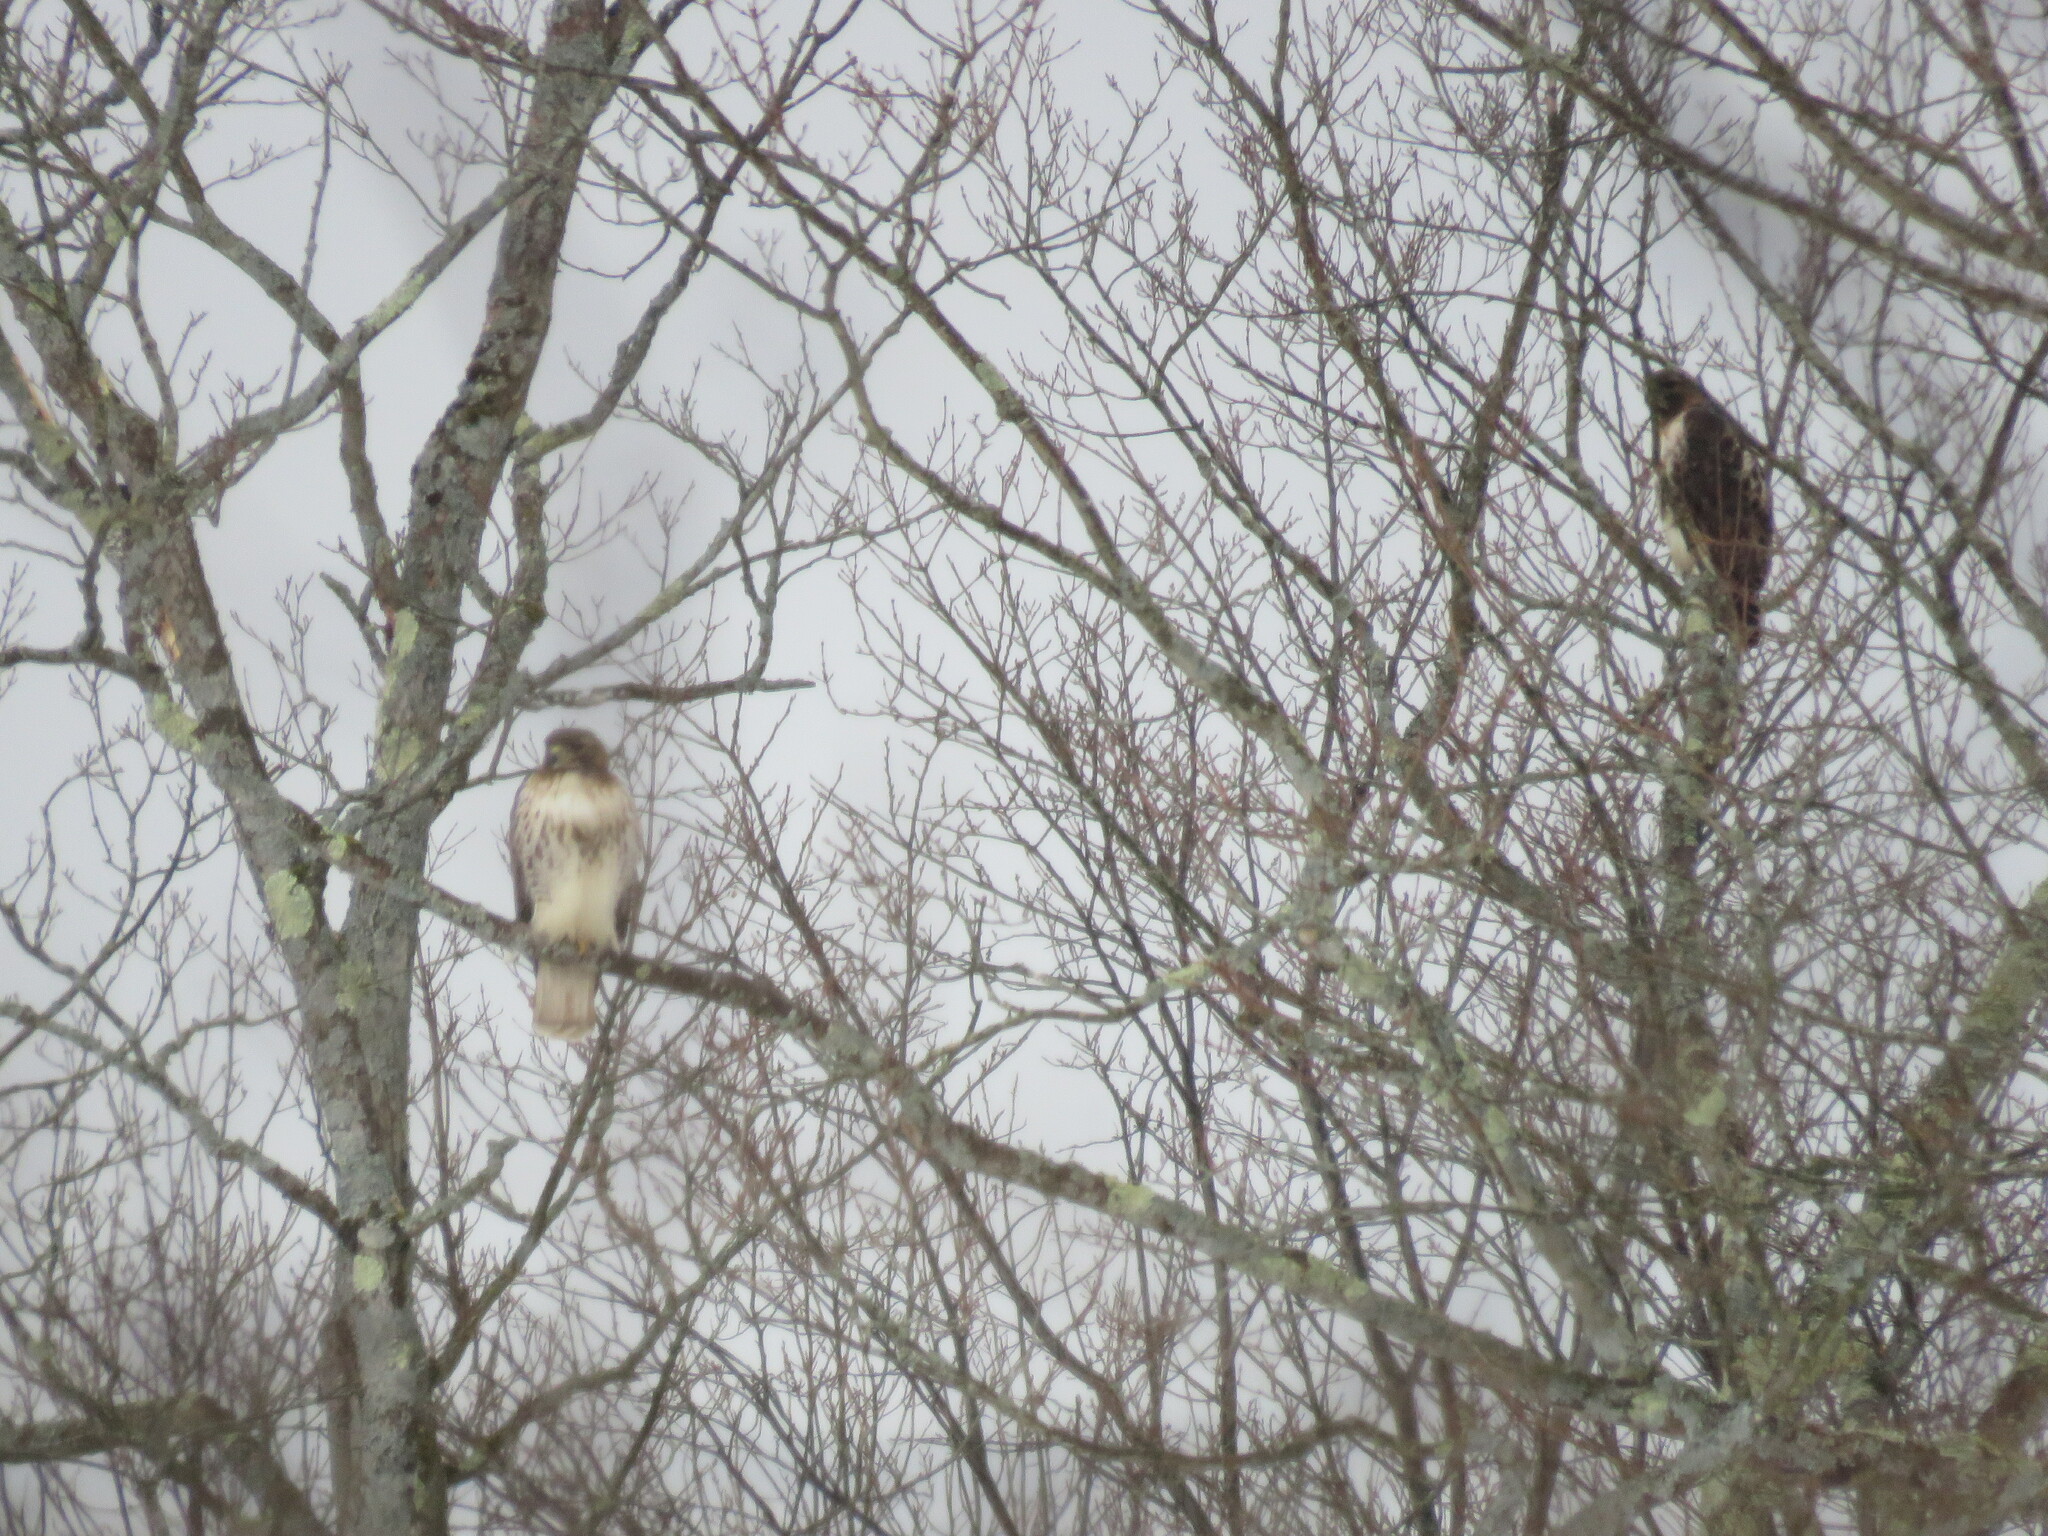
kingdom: Animalia
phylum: Chordata
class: Aves
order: Accipitriformes
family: Accipitridae
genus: Buteo
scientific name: Buteo jamaicensis
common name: Red-tailed hawk
